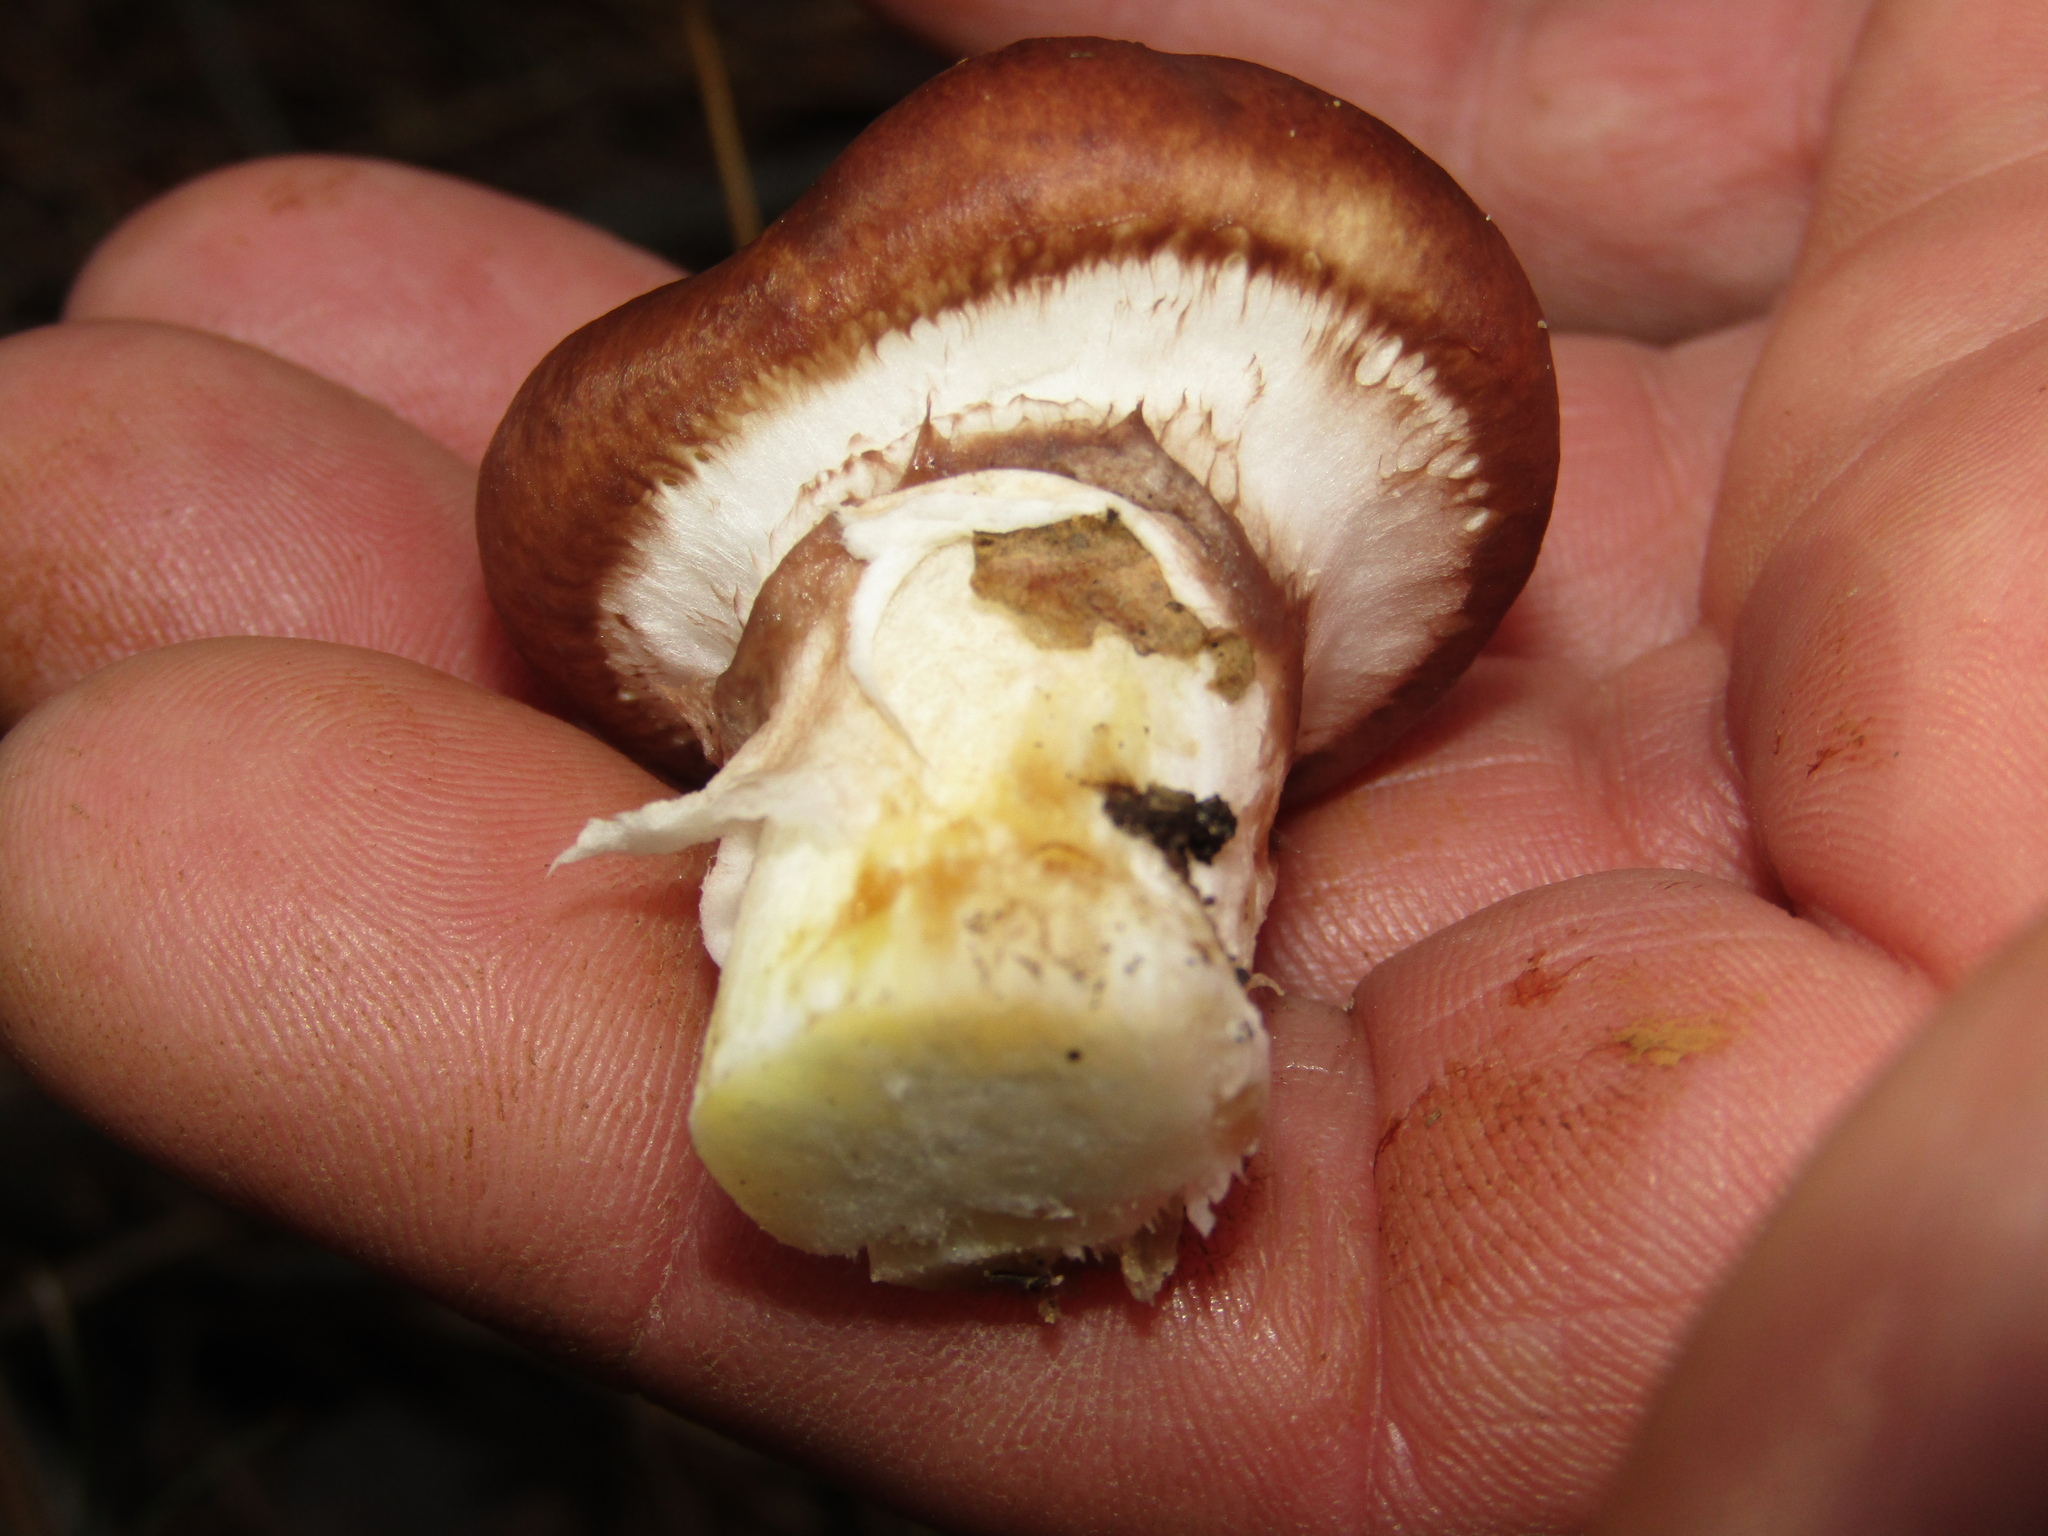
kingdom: Fungi
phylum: Basidiomycota
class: Agaricomycetes
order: Boletales
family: Suillaceae
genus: Suillus
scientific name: Suillus luteus
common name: Slippery jack
